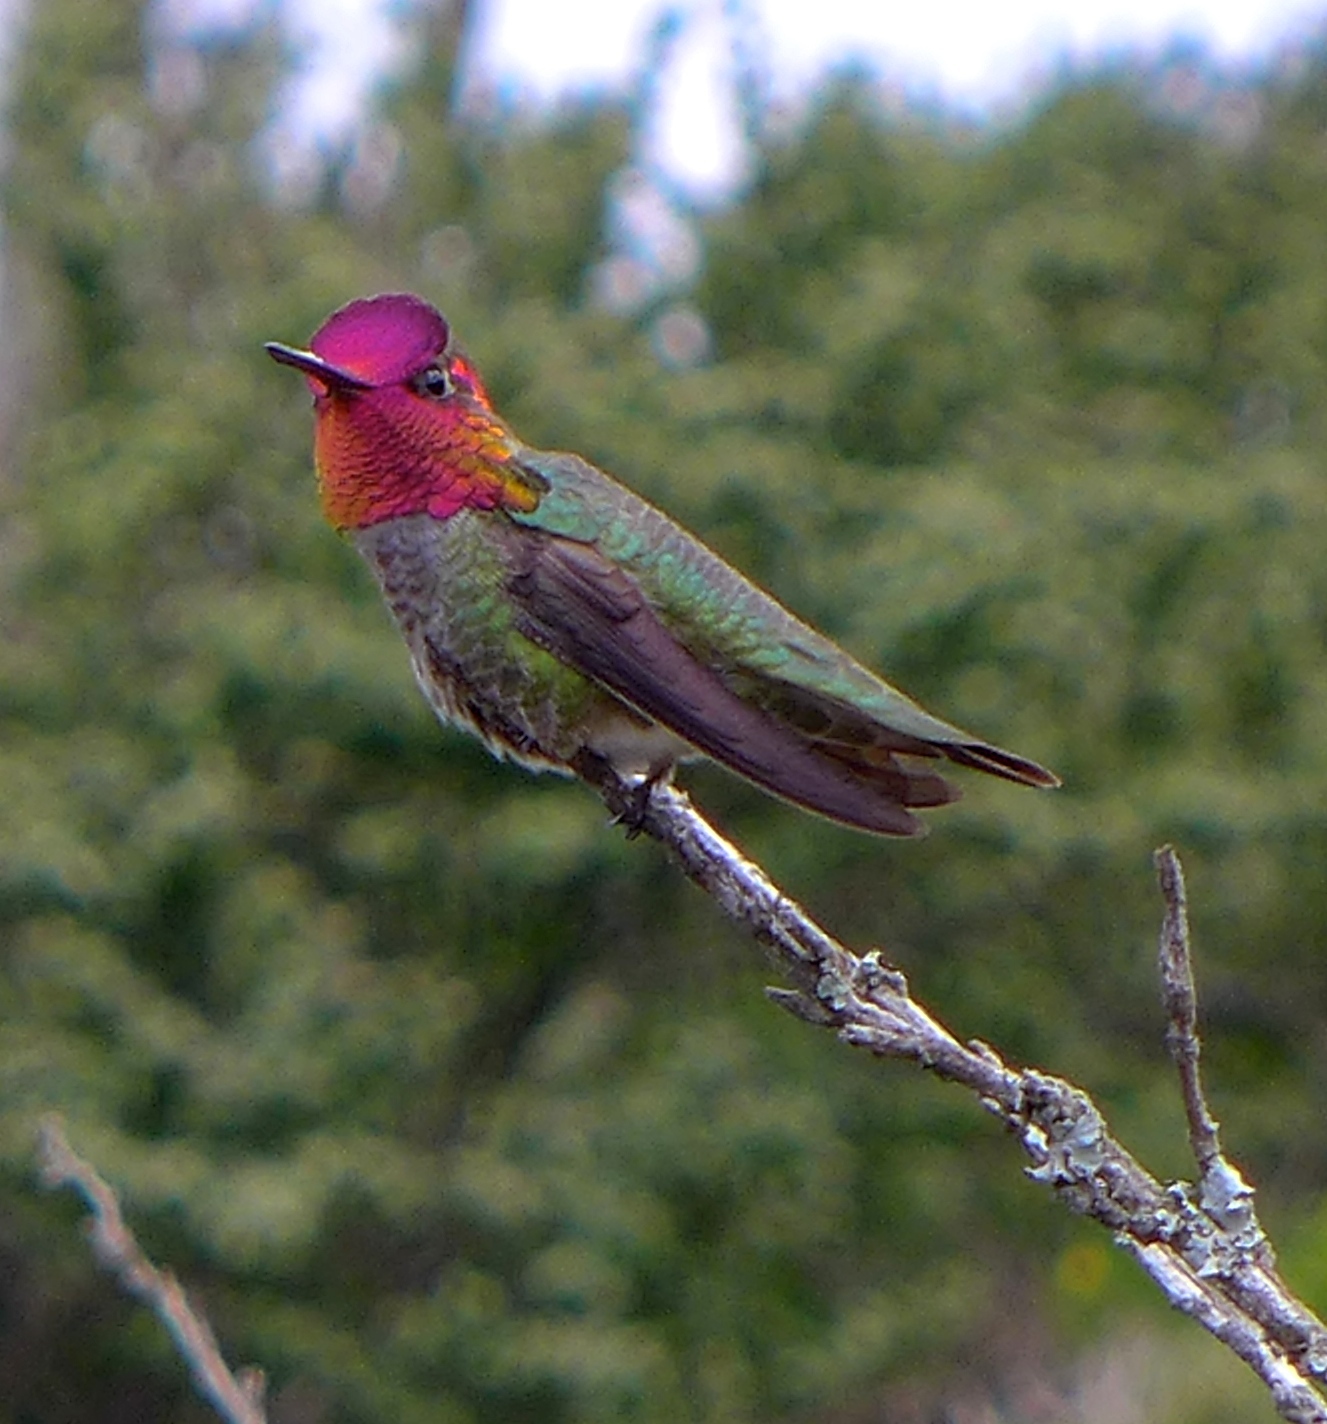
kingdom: Animalia
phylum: Chordata
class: Aves
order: Apodiformes
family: Trochilidae
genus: Calypte
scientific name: Calypte anna
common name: Anna's hummingbird
